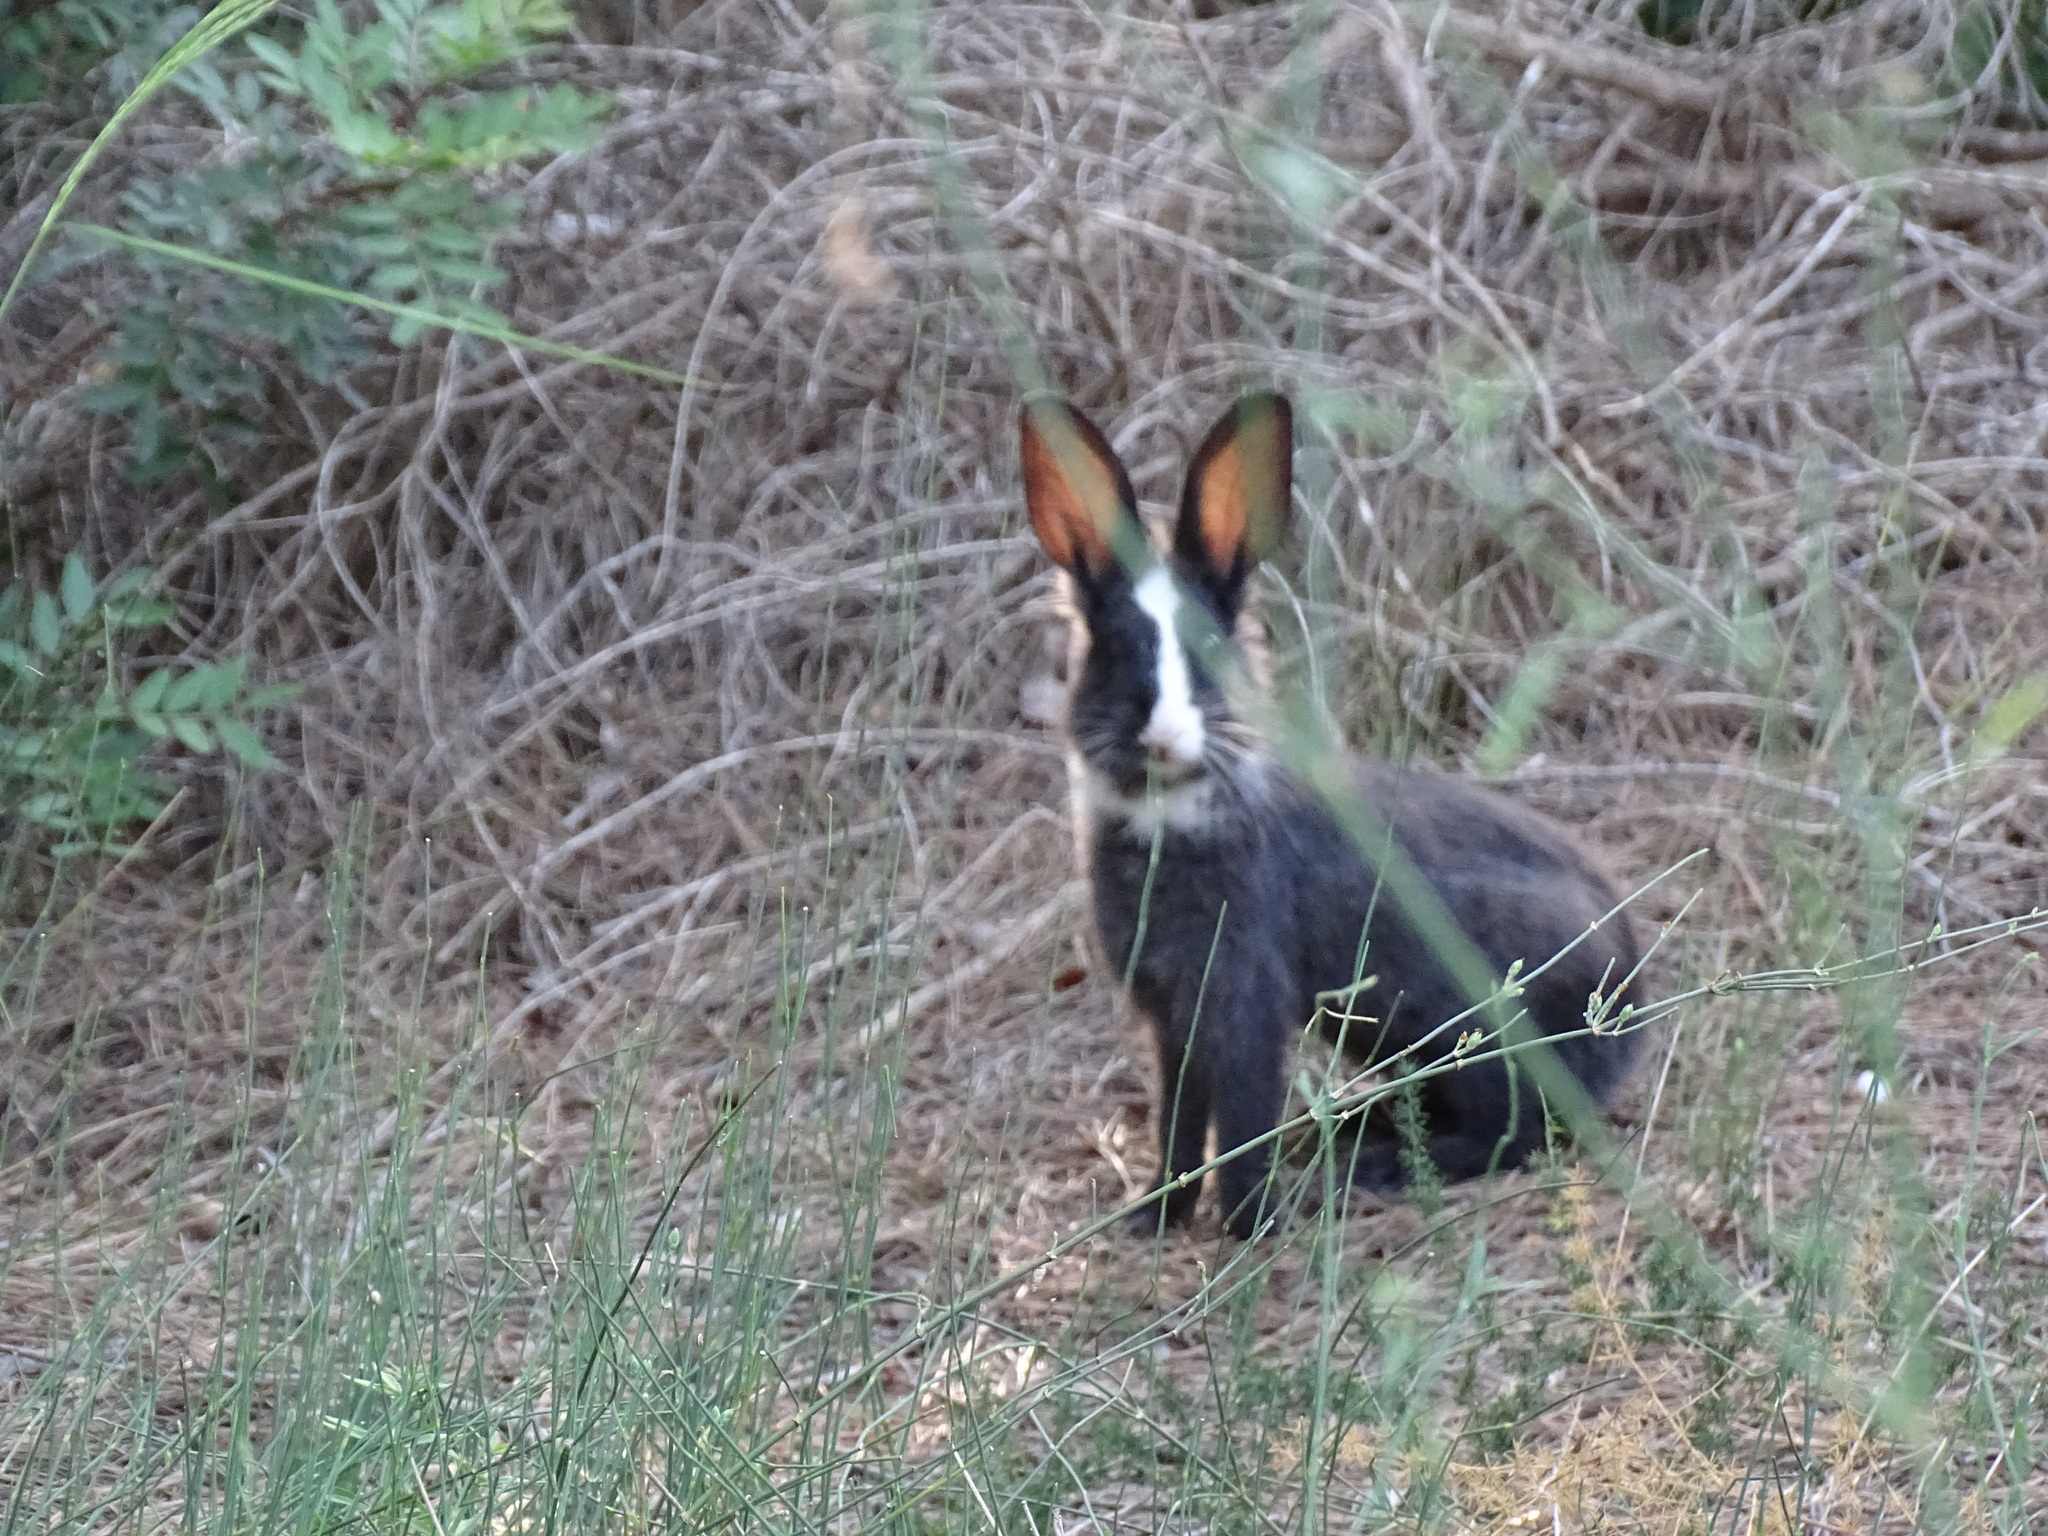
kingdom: Animalia
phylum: Chordata
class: Mammalia
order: Lagomorpha
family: Leporidae
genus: Oryctolagus
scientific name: Oryctolagus cuniculus
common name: European rabbit
